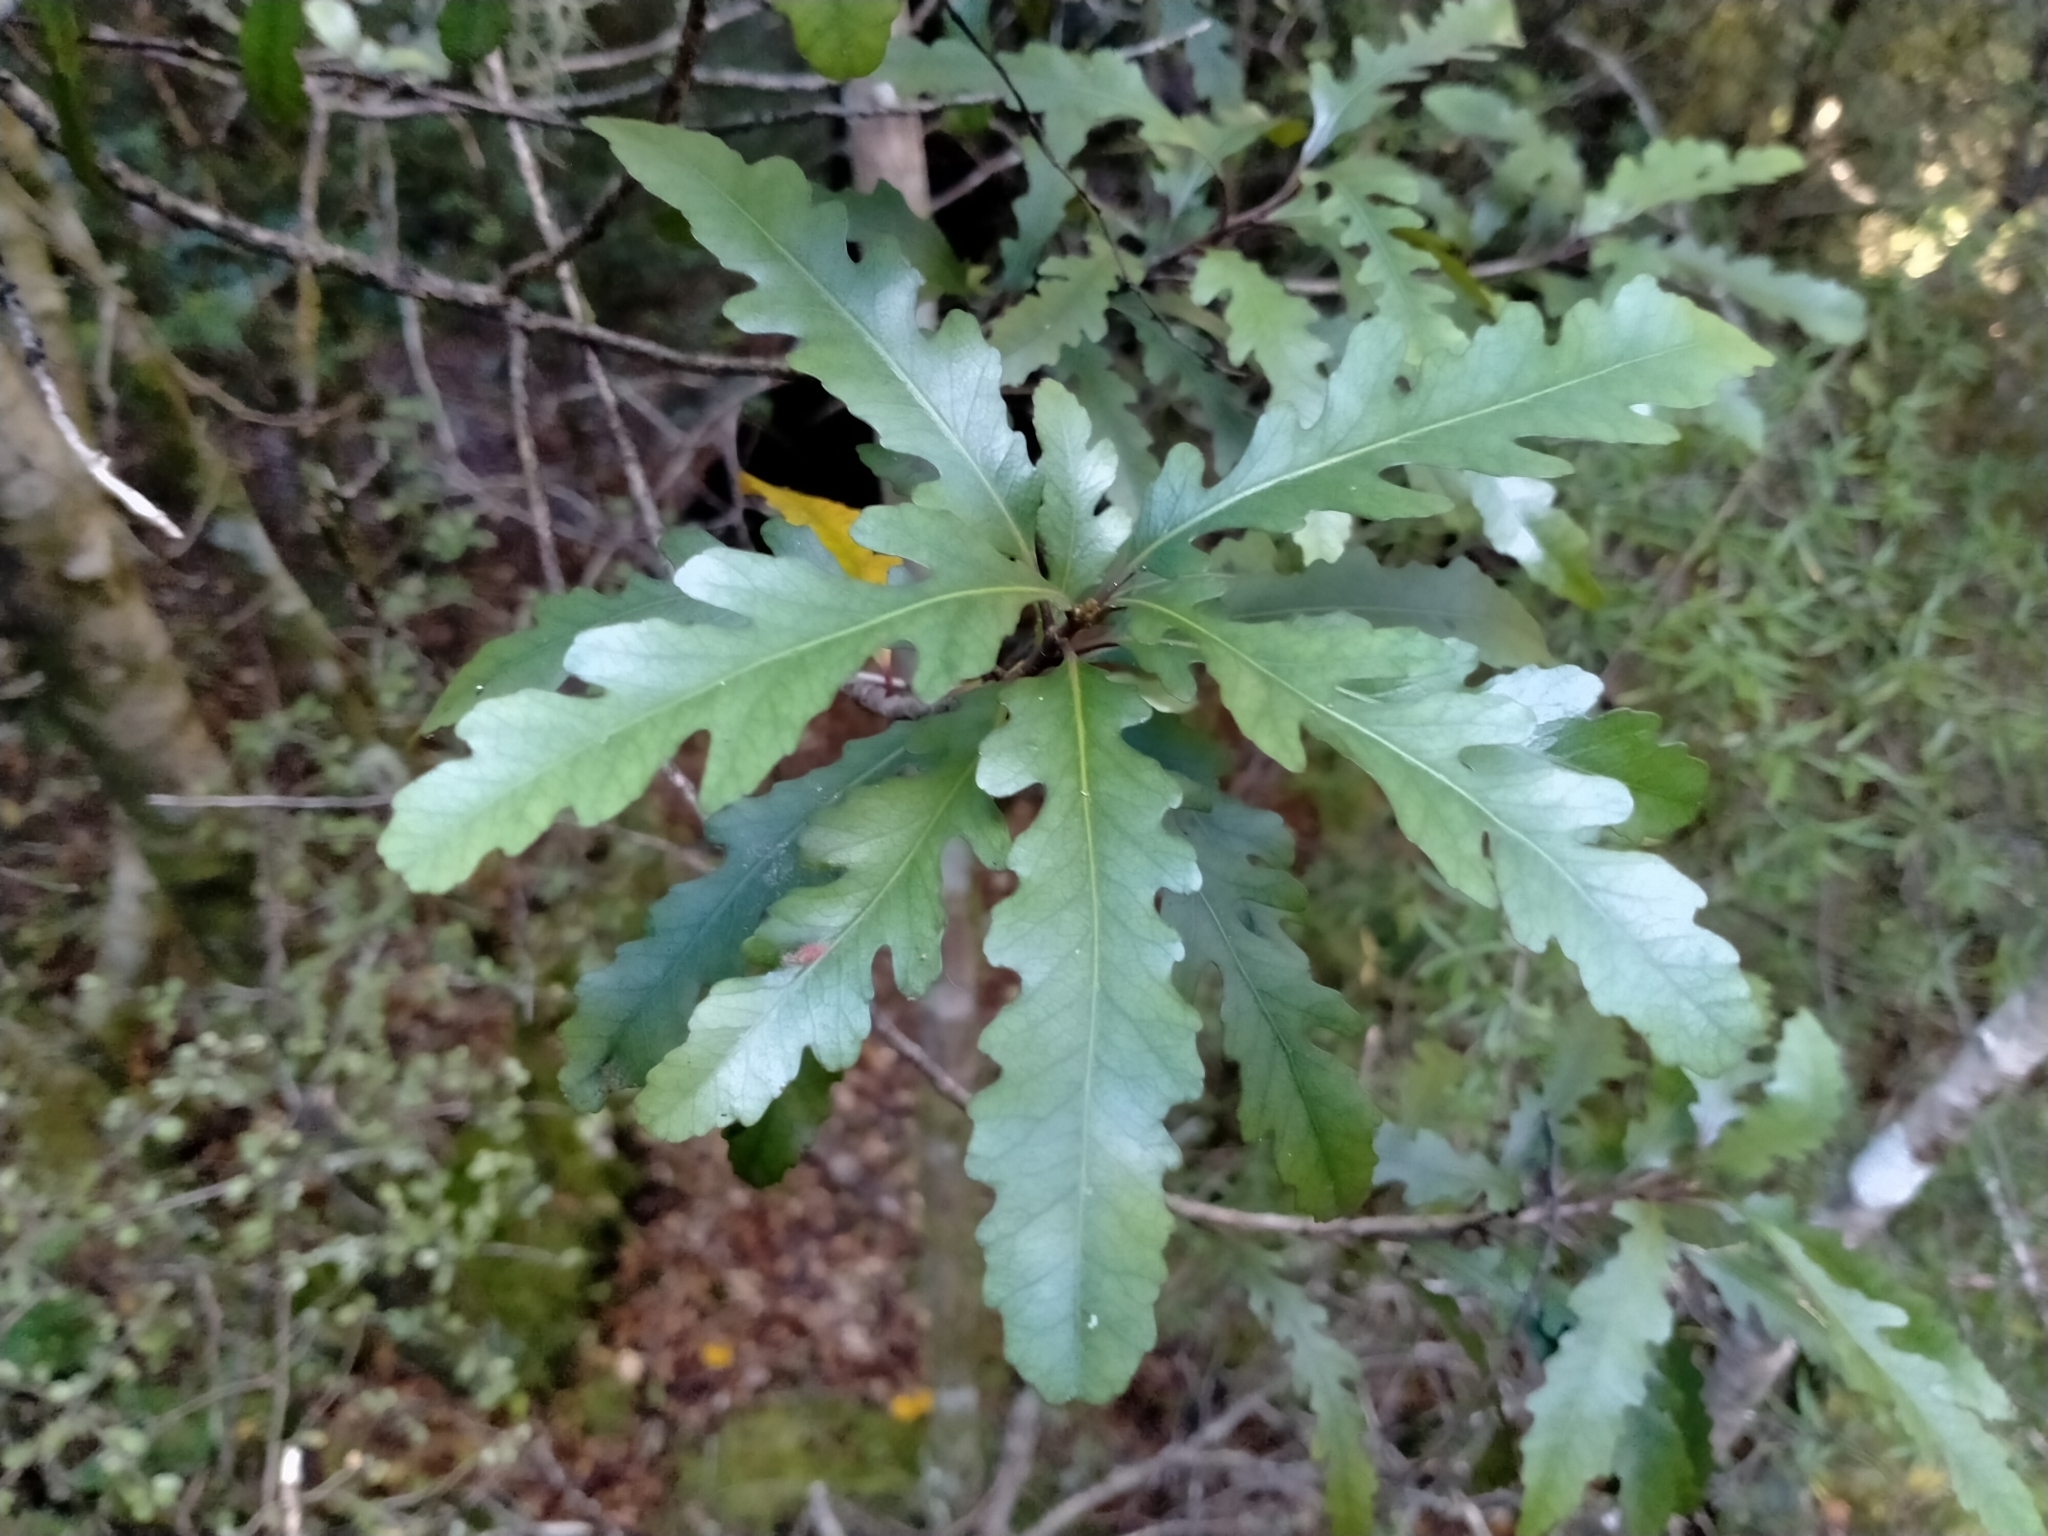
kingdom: Plantae
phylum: Tracheophyta
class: Magnoliopsida
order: Oxalidales
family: Elaeocarpaceae
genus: Elaeocarpus
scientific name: Elaeocarpus hookerianus
